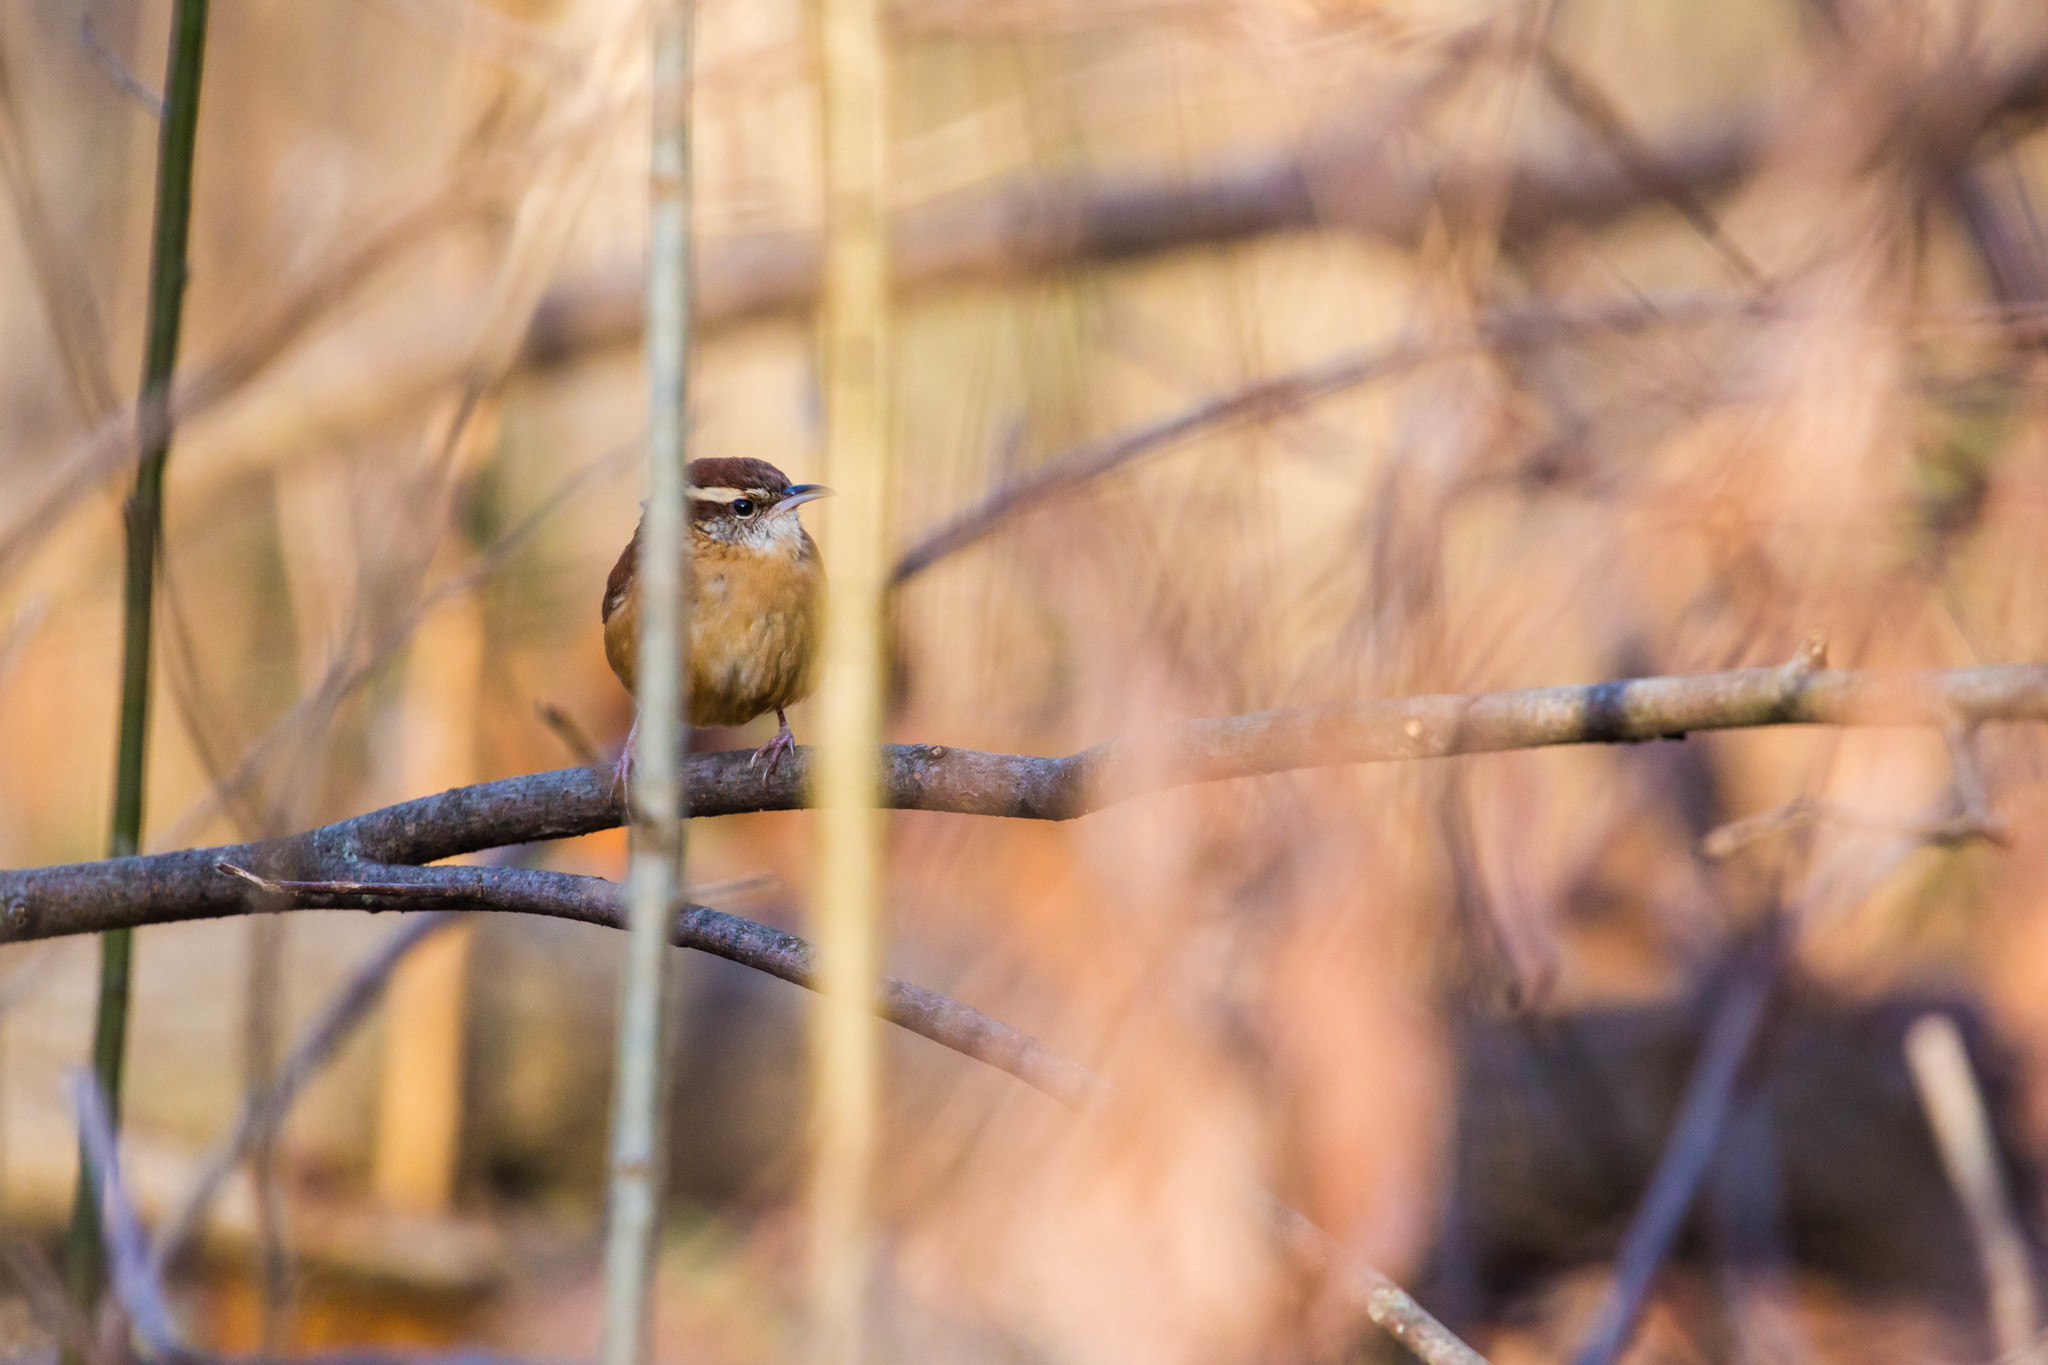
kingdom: Animalia
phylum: Chordata
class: Aves
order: Passeriformes
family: Troglodytidae
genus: Thryothorus
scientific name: Thryothorus ludovicianus
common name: Carolina wren
